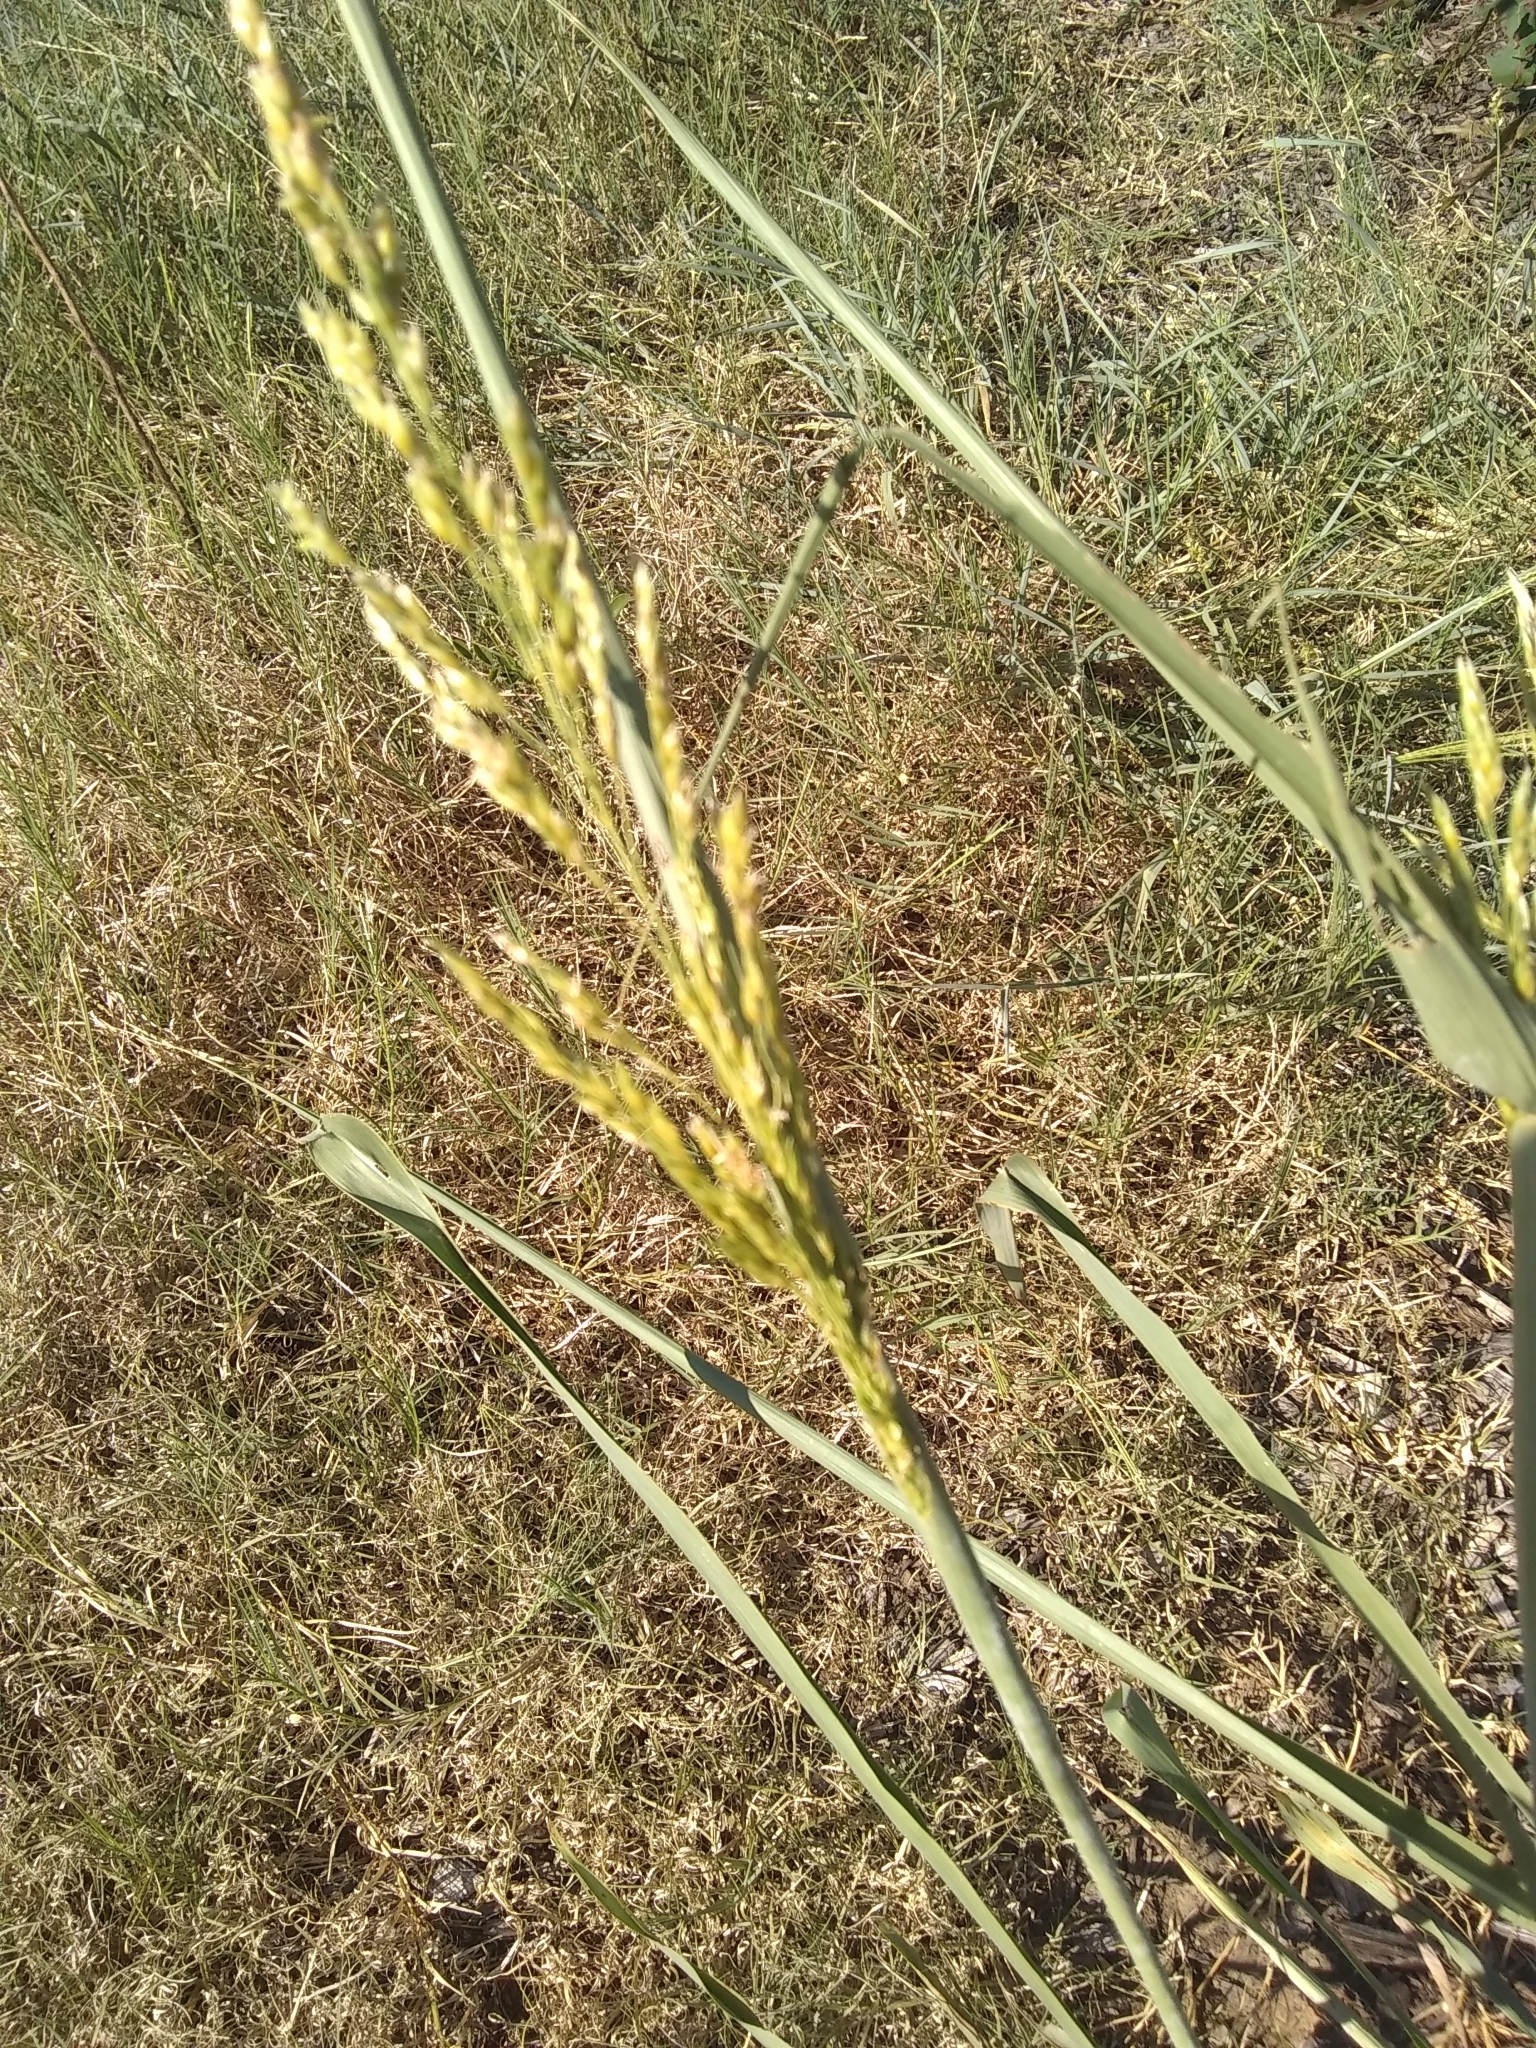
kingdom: Plantae
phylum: Tracheophyta
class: Liliopsida
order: Poales
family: Poaceae
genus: Sorghum
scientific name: Sorghum halepense
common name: Johnson-grass
